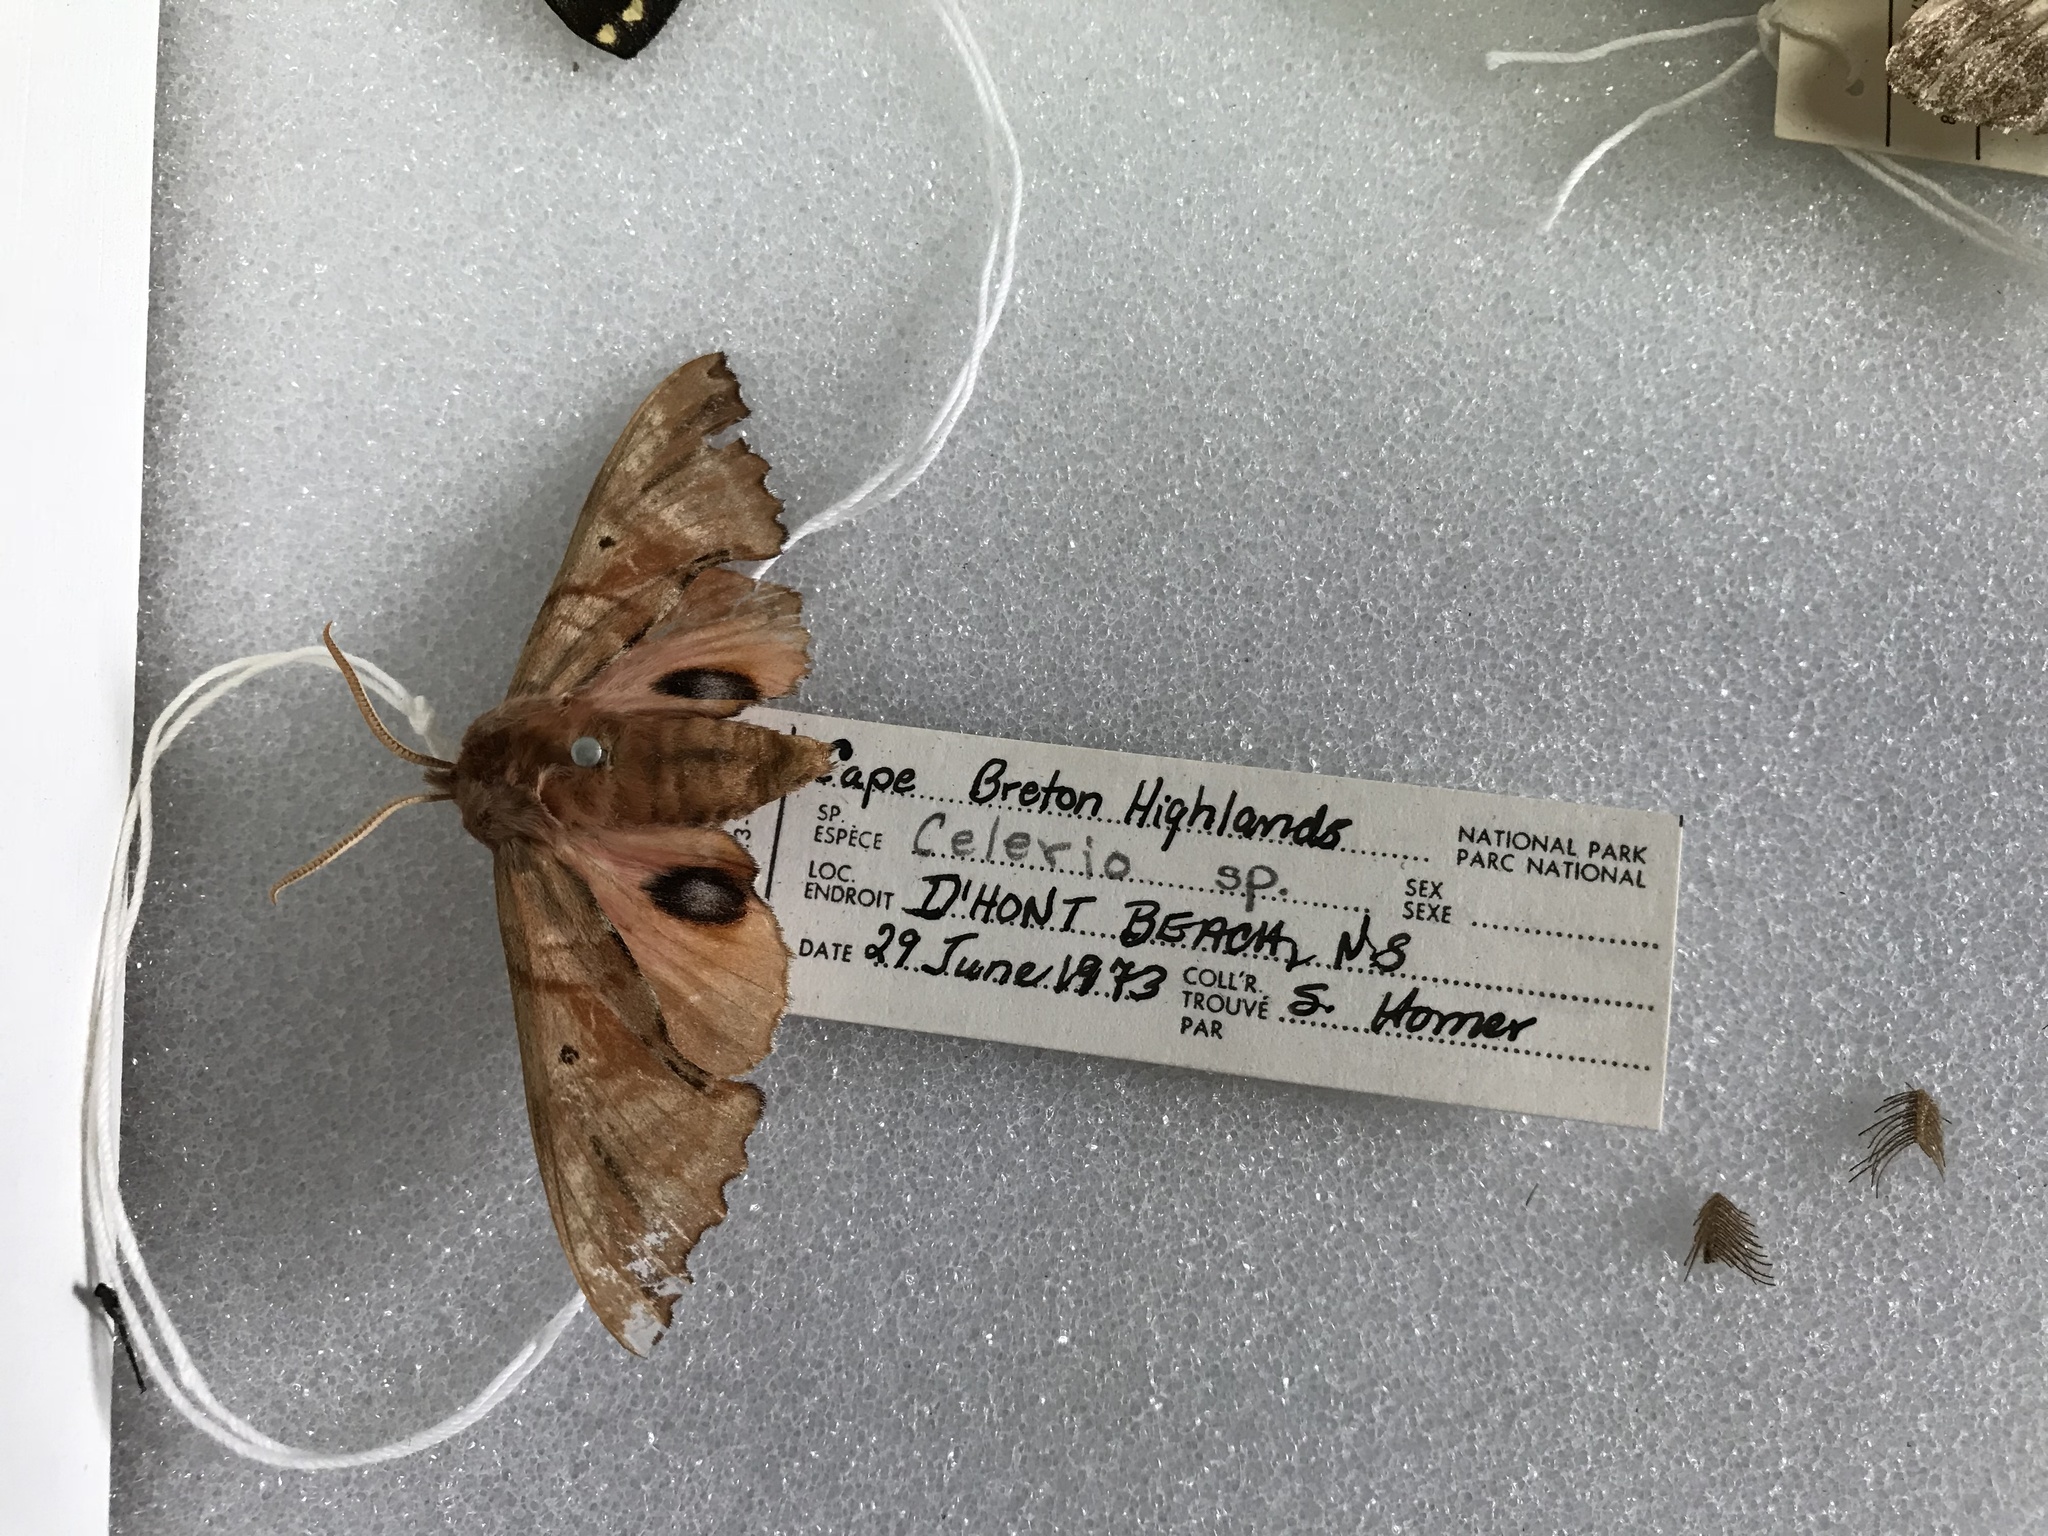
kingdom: Animalia
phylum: Arthropoda
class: Insecta
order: Lepidoptera
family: Sphingidae
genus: Smerinthus
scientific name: Smerinthus jamaicensis
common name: Twin spotted sphinx
